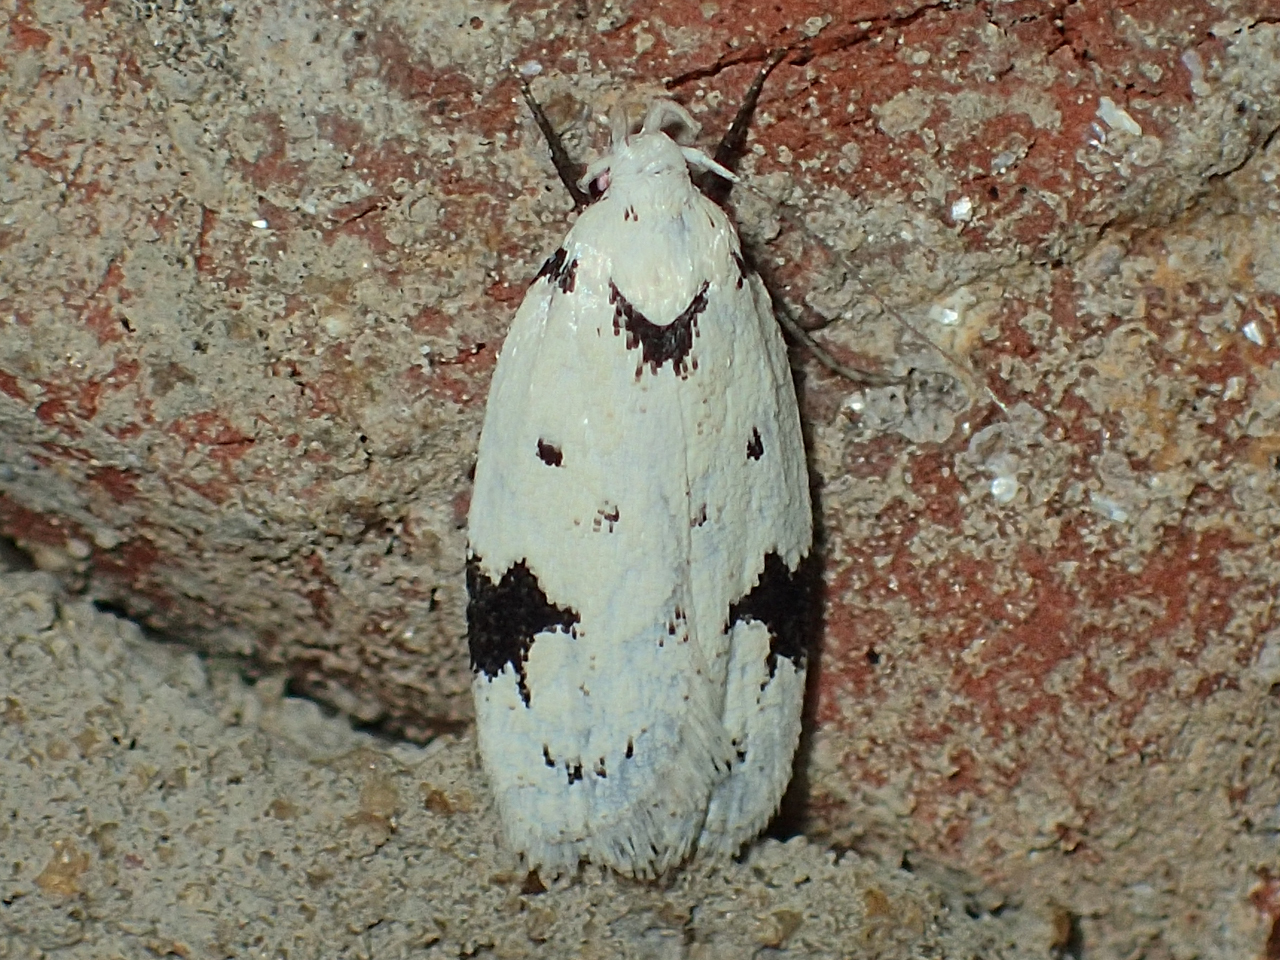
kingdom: Animalia
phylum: Arthropoda
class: Insecta
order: Lepidoptera
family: Oecophoridae
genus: Inga
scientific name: Inga sparsiciliella
